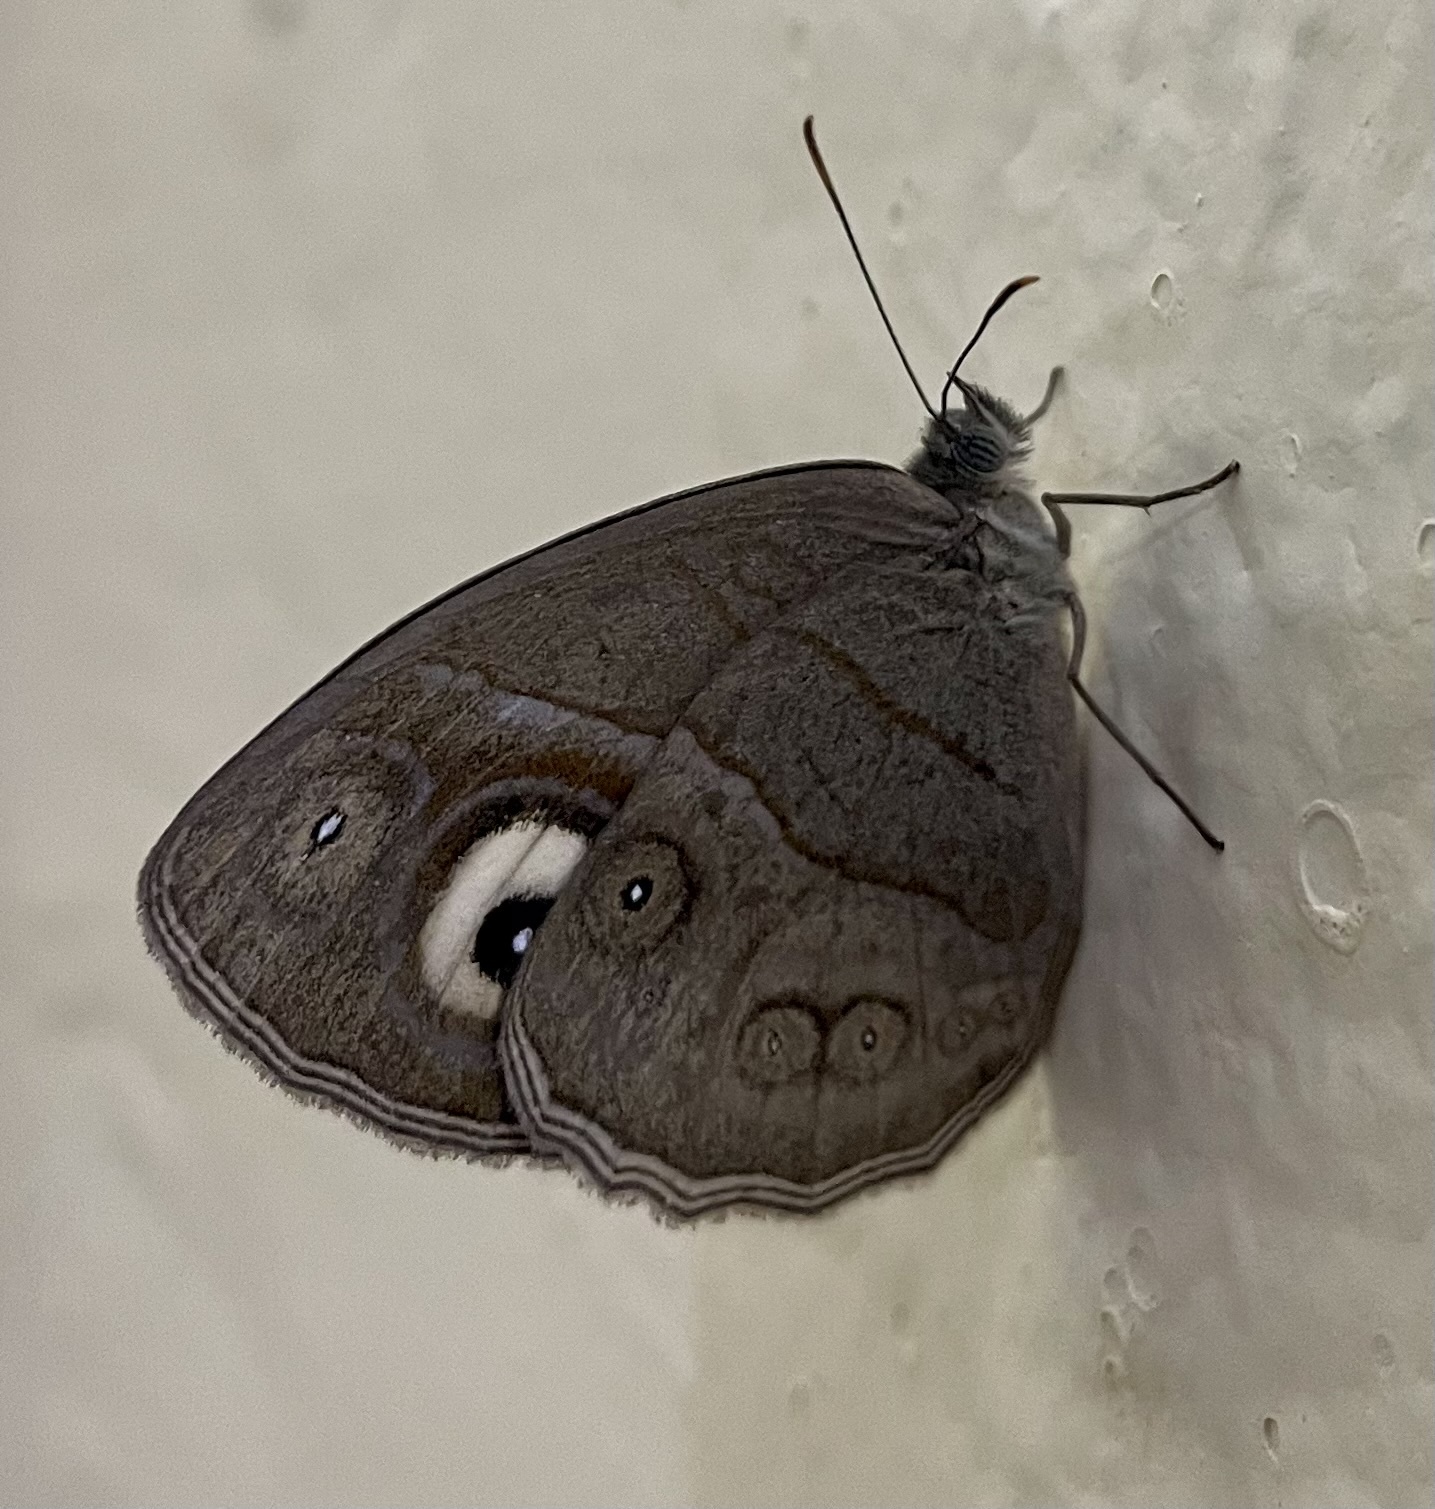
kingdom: Animalia
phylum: Arthropoda
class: Insecta
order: Lepidoptera
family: Nymphalidae
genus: Mycalesis
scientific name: Mycalesis patnia
